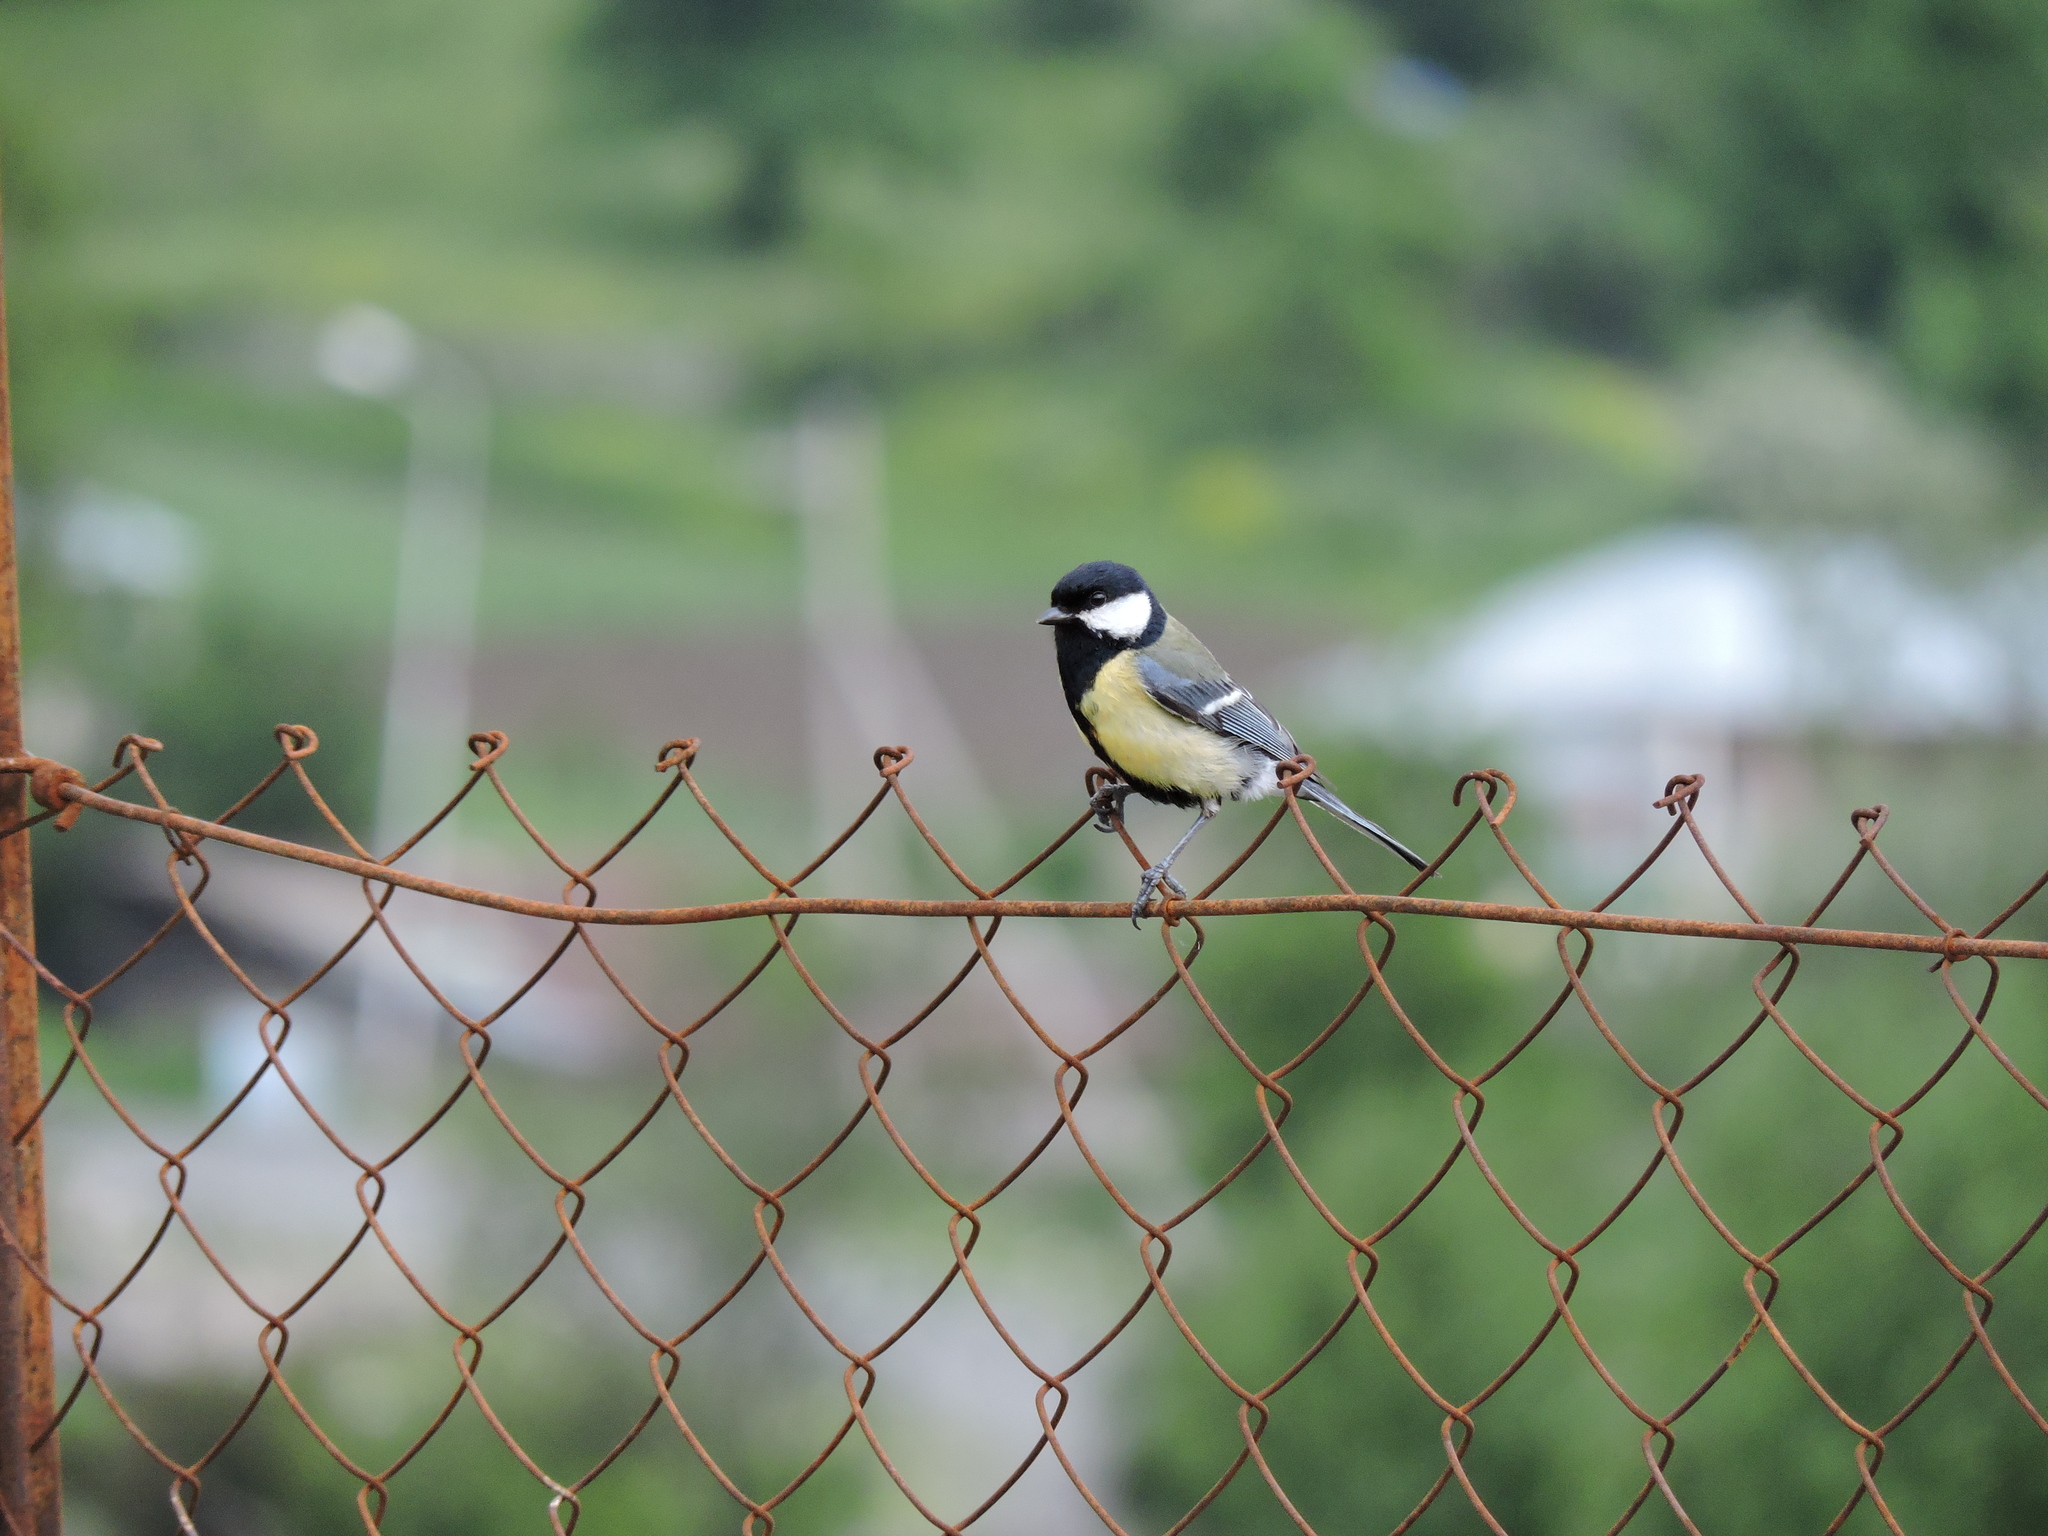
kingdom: Animalia
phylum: Chordata
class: Aves
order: Passeriformes
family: Paridae
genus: Parus
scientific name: Parus major
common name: Great tit
